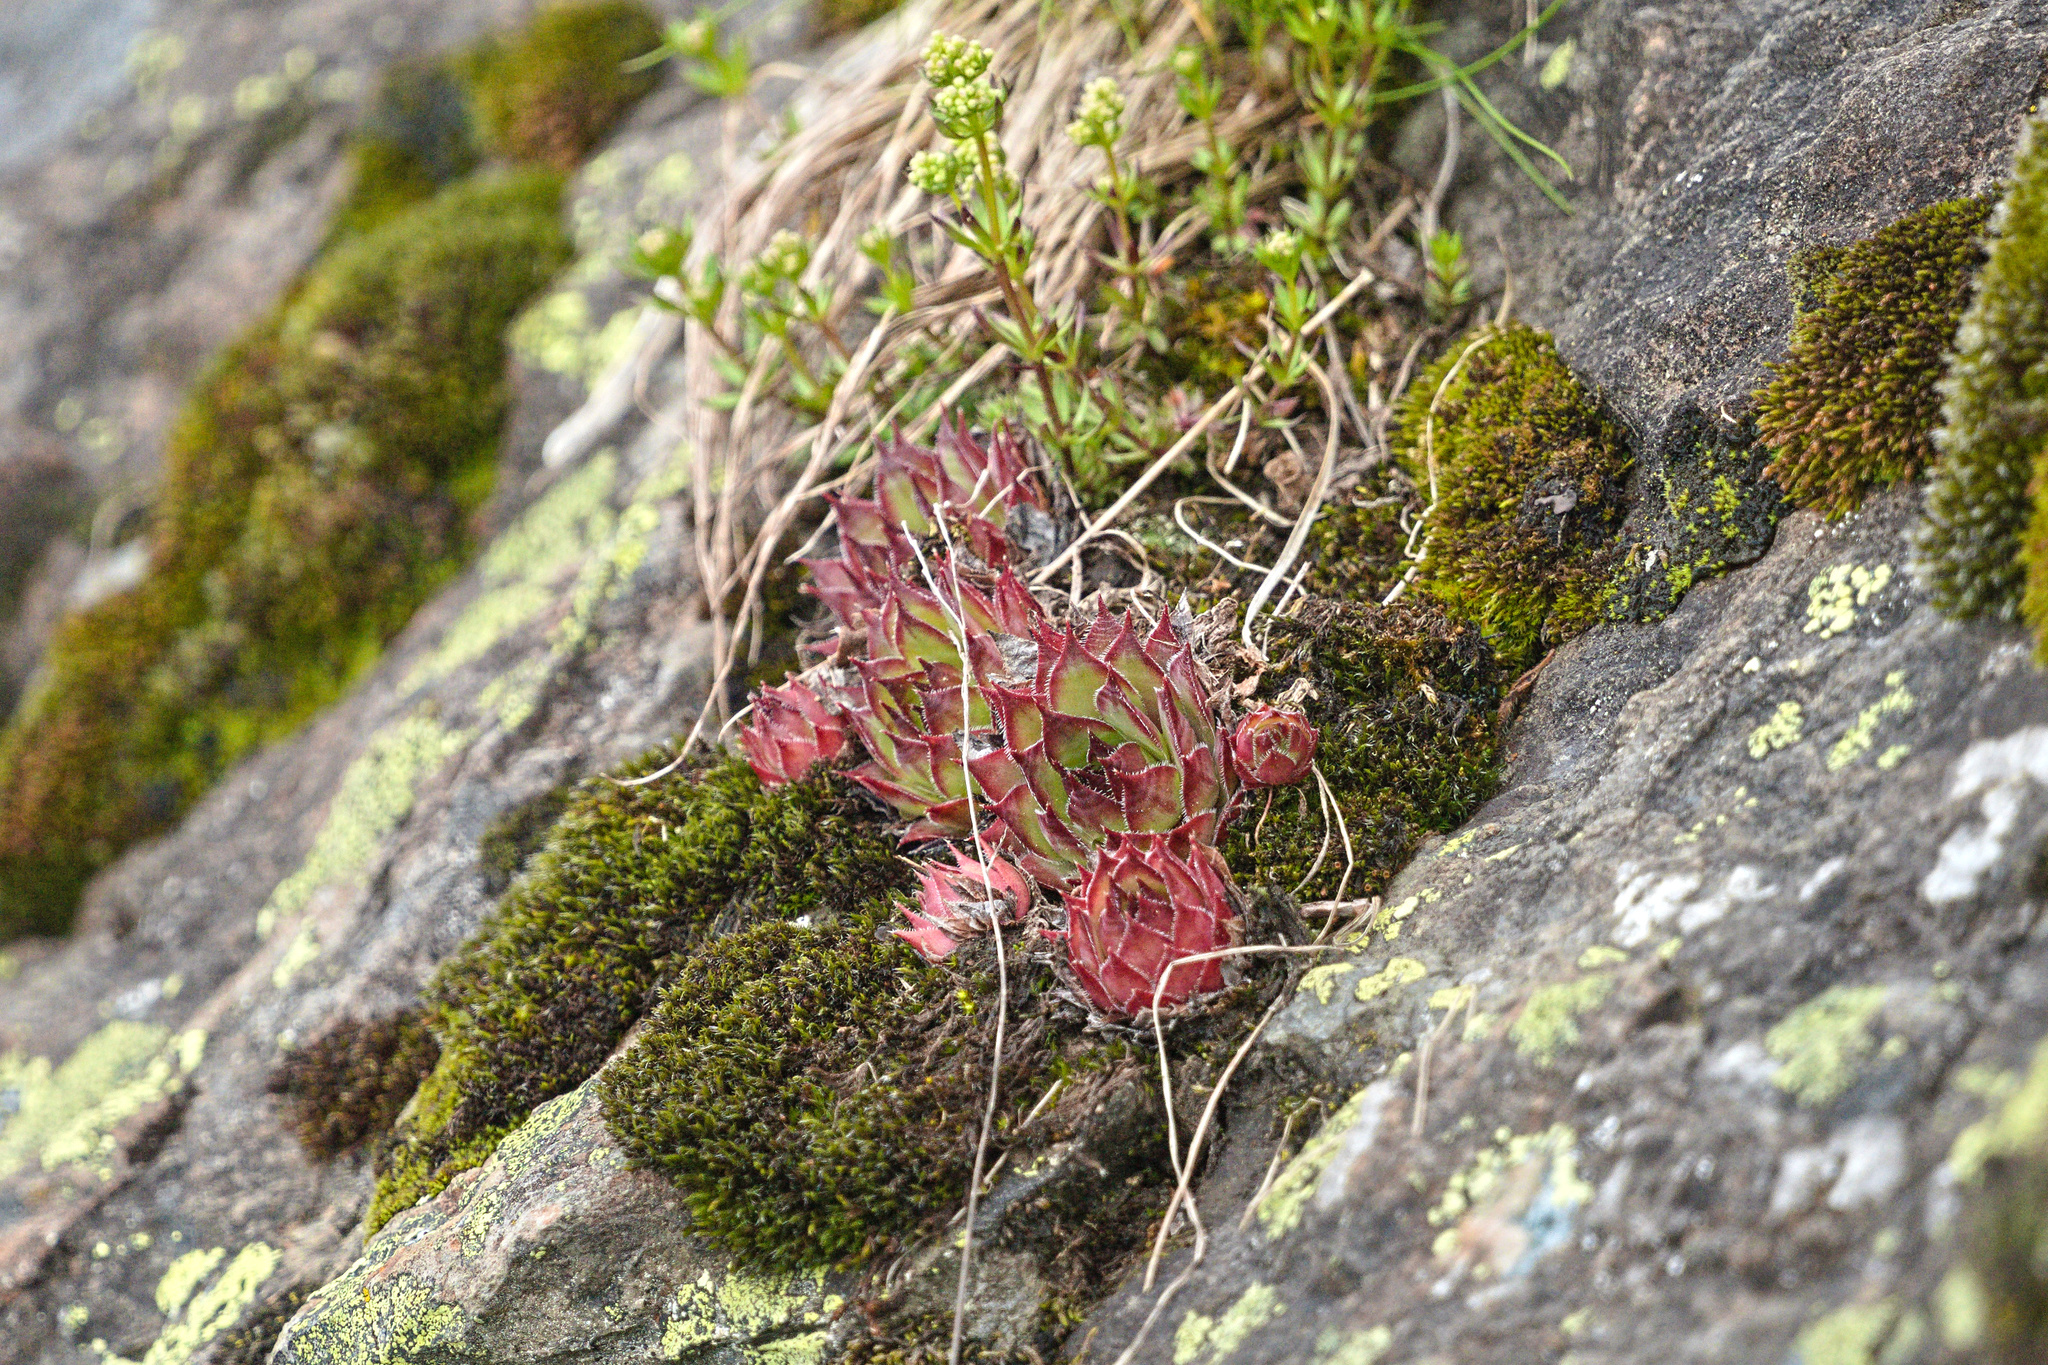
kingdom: Plantae
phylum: Tracheophyta
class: Magnoliopsida
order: Saxifragales
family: Crassulaceae
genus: Sempervivum
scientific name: Sempervivum tectorum
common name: House-leek
